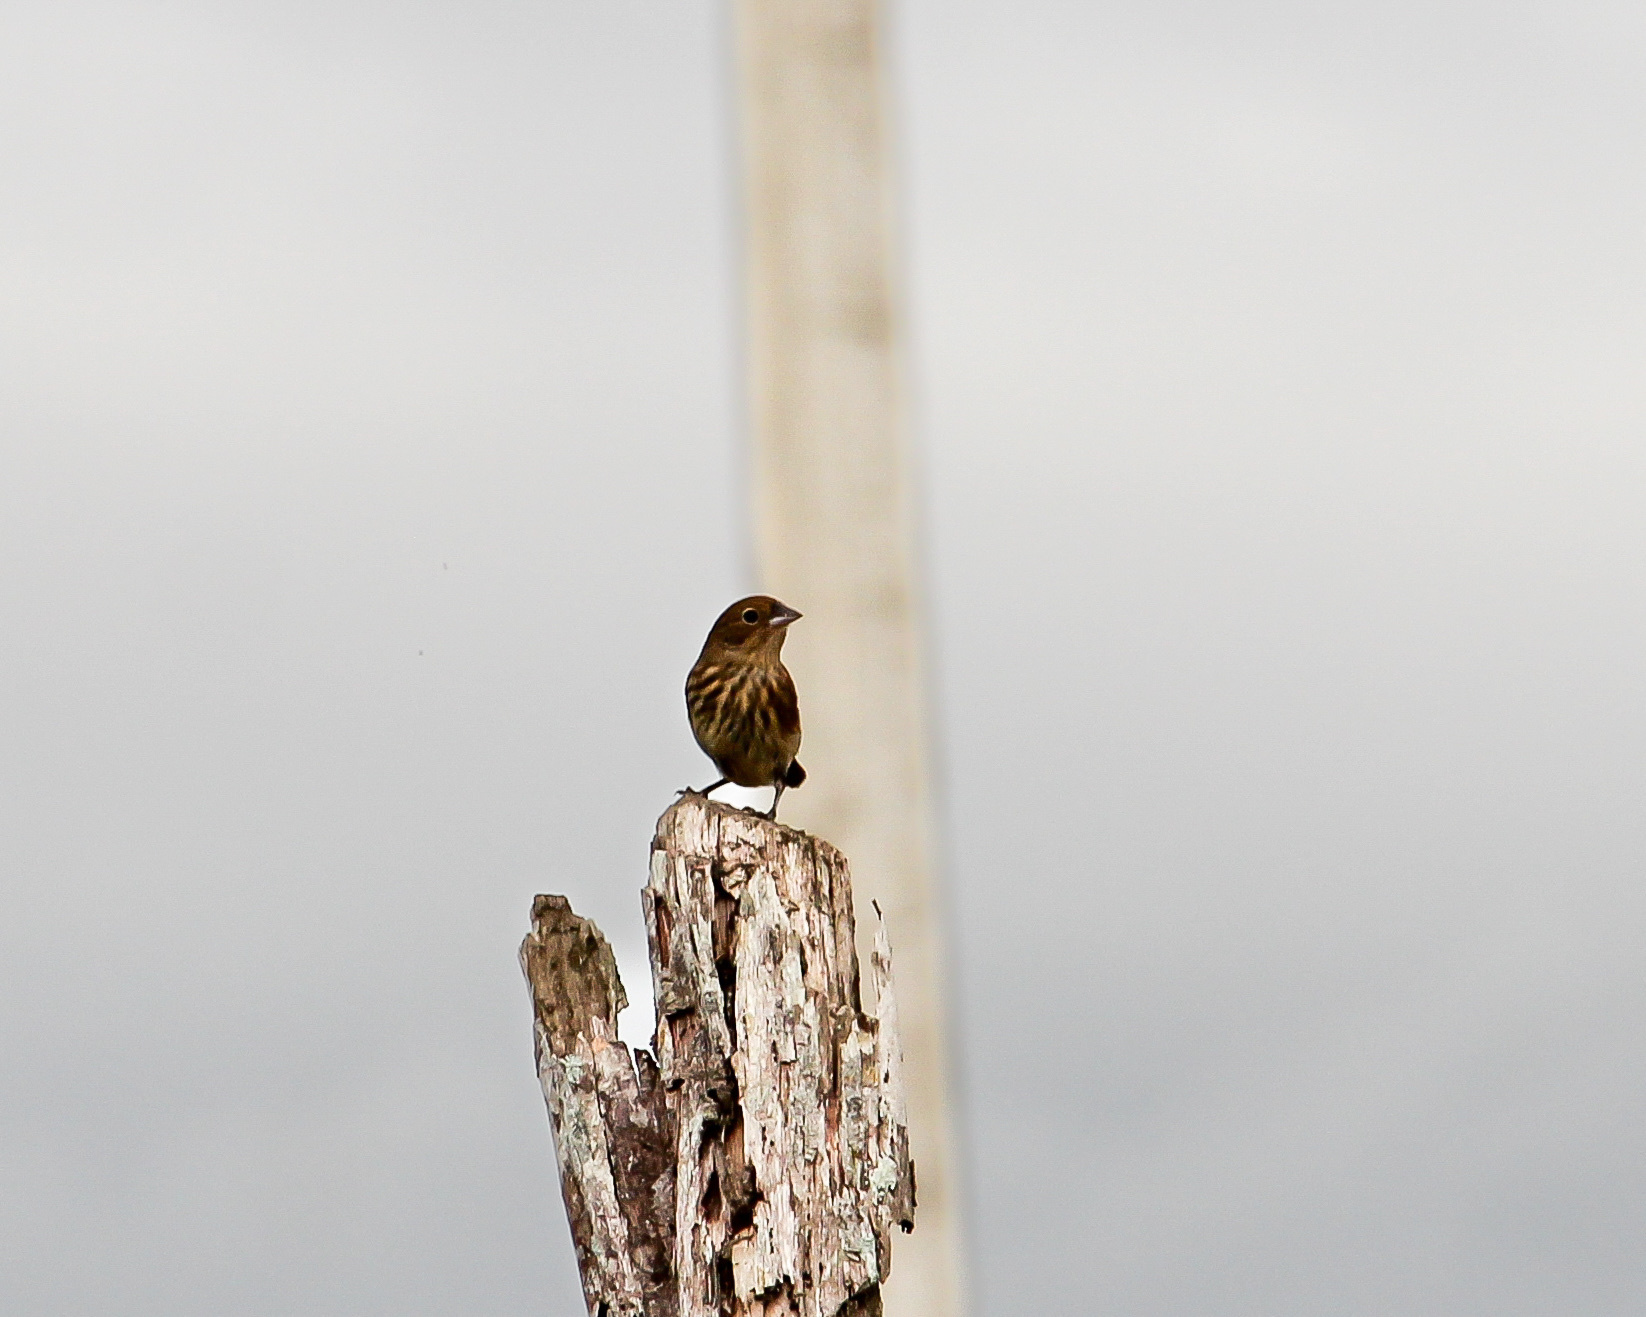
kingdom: Animalia
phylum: Chordata
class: Aves
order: Passeriformes
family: Thraupidae
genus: Volatinia
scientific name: Volatinia jacarina
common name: Blue-black grassquit
